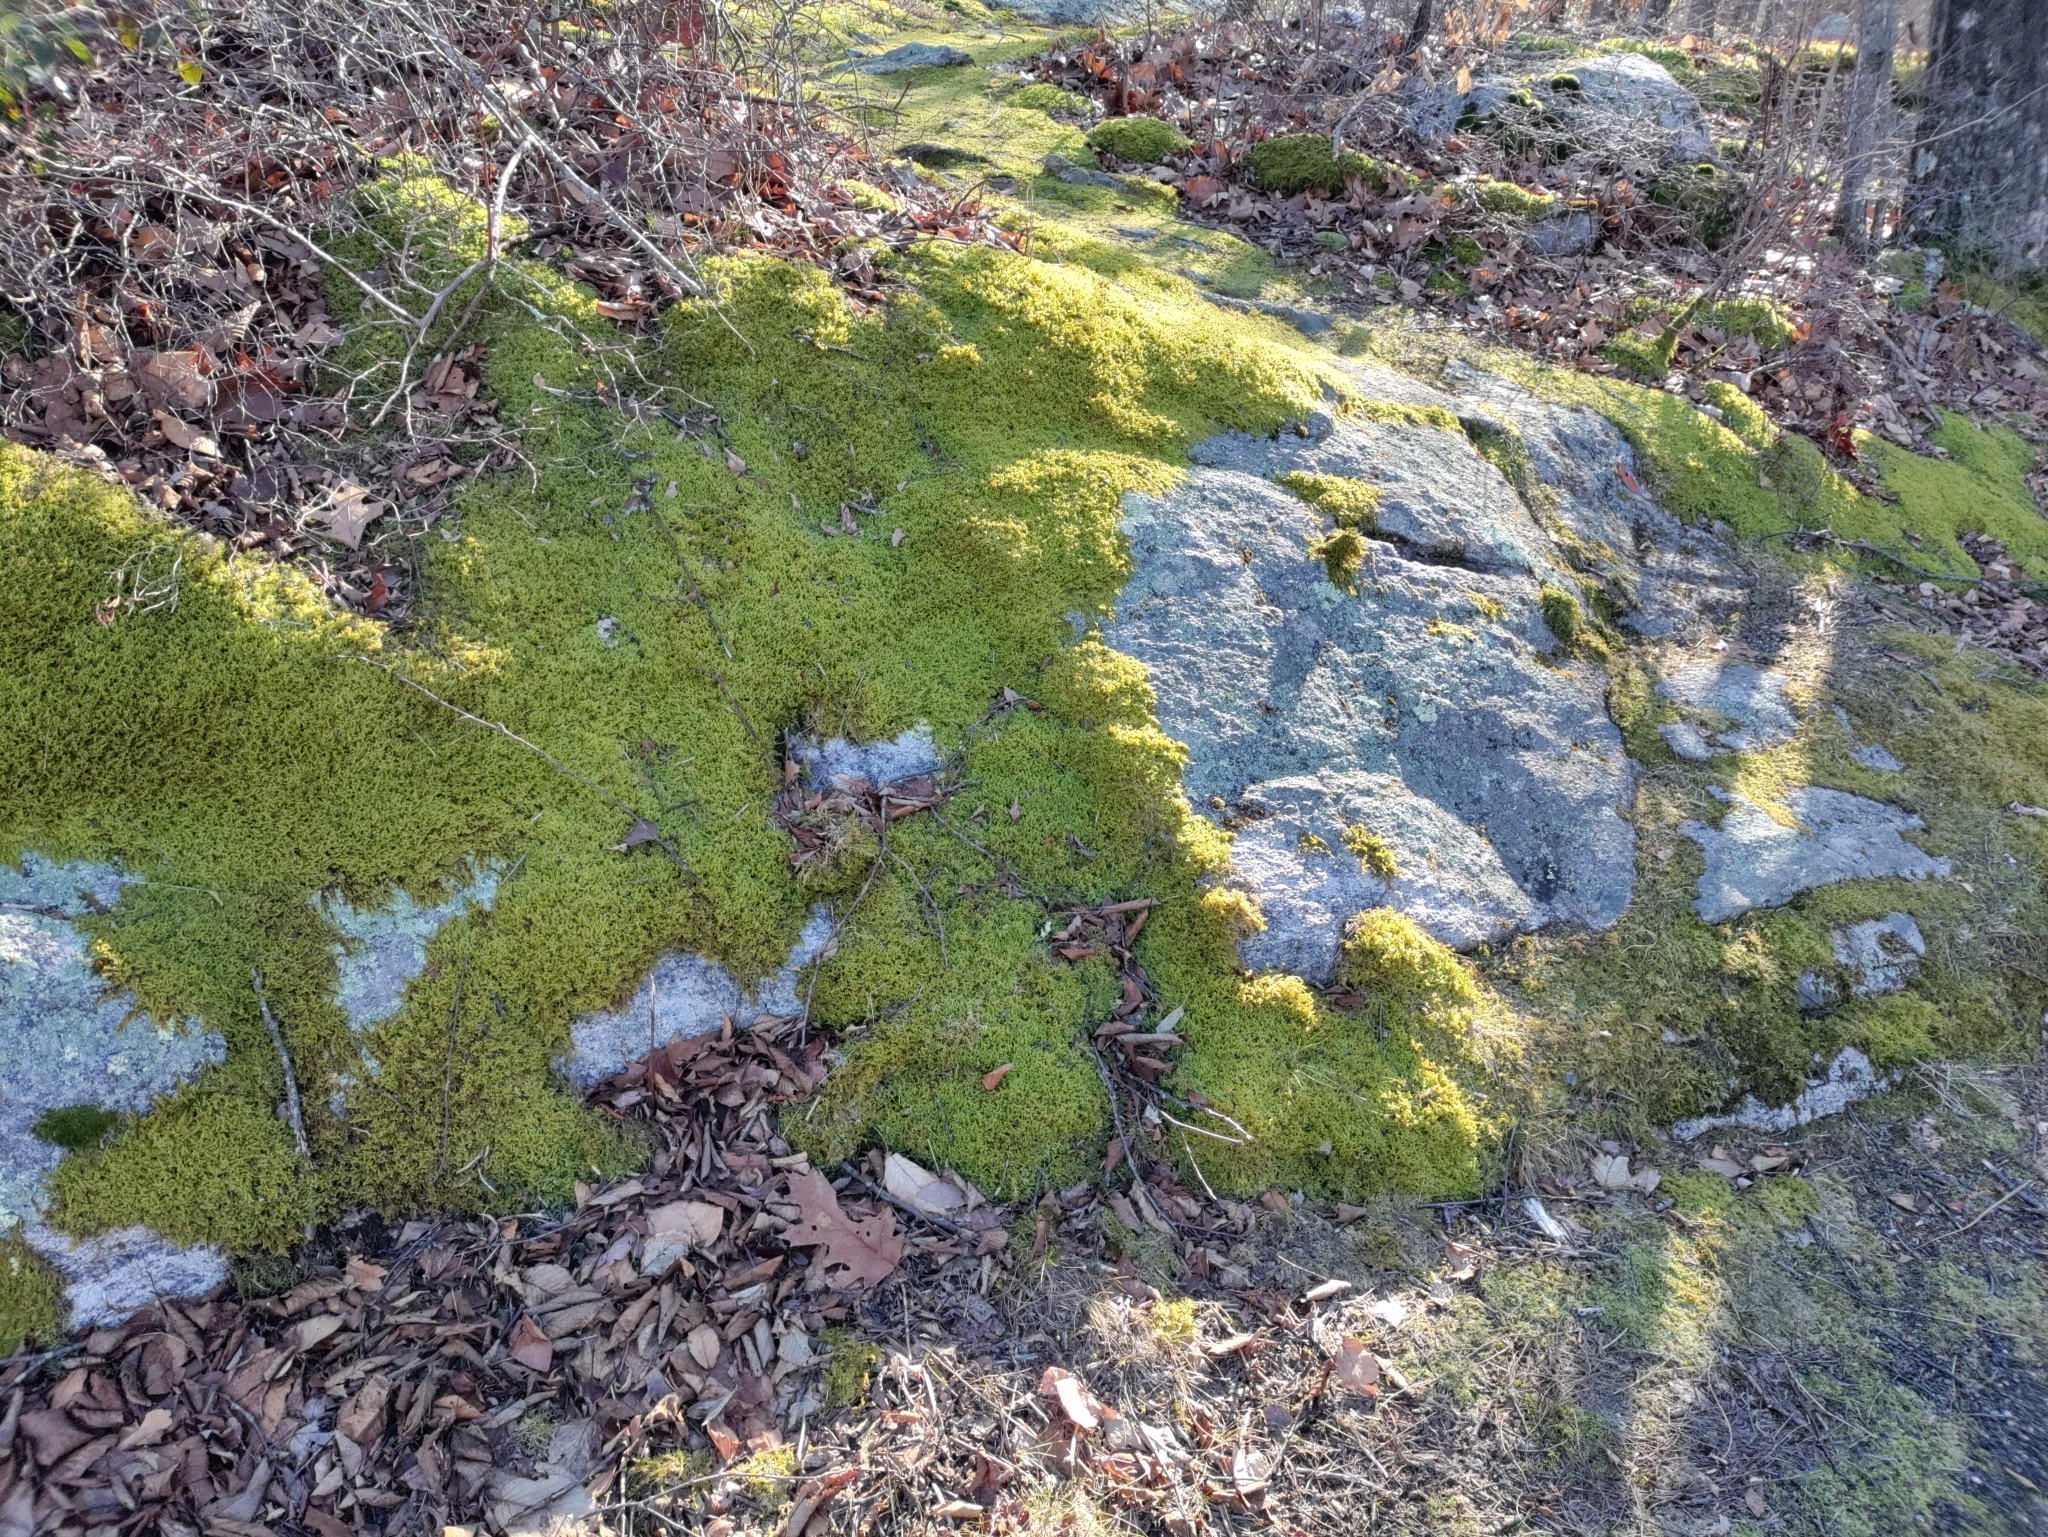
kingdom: Plantae
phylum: Bryophyta
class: Bryopsida
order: Hypnales
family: Callicladiaceae
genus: Callicladium
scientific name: Callicladium imponens
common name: Brocade moss
